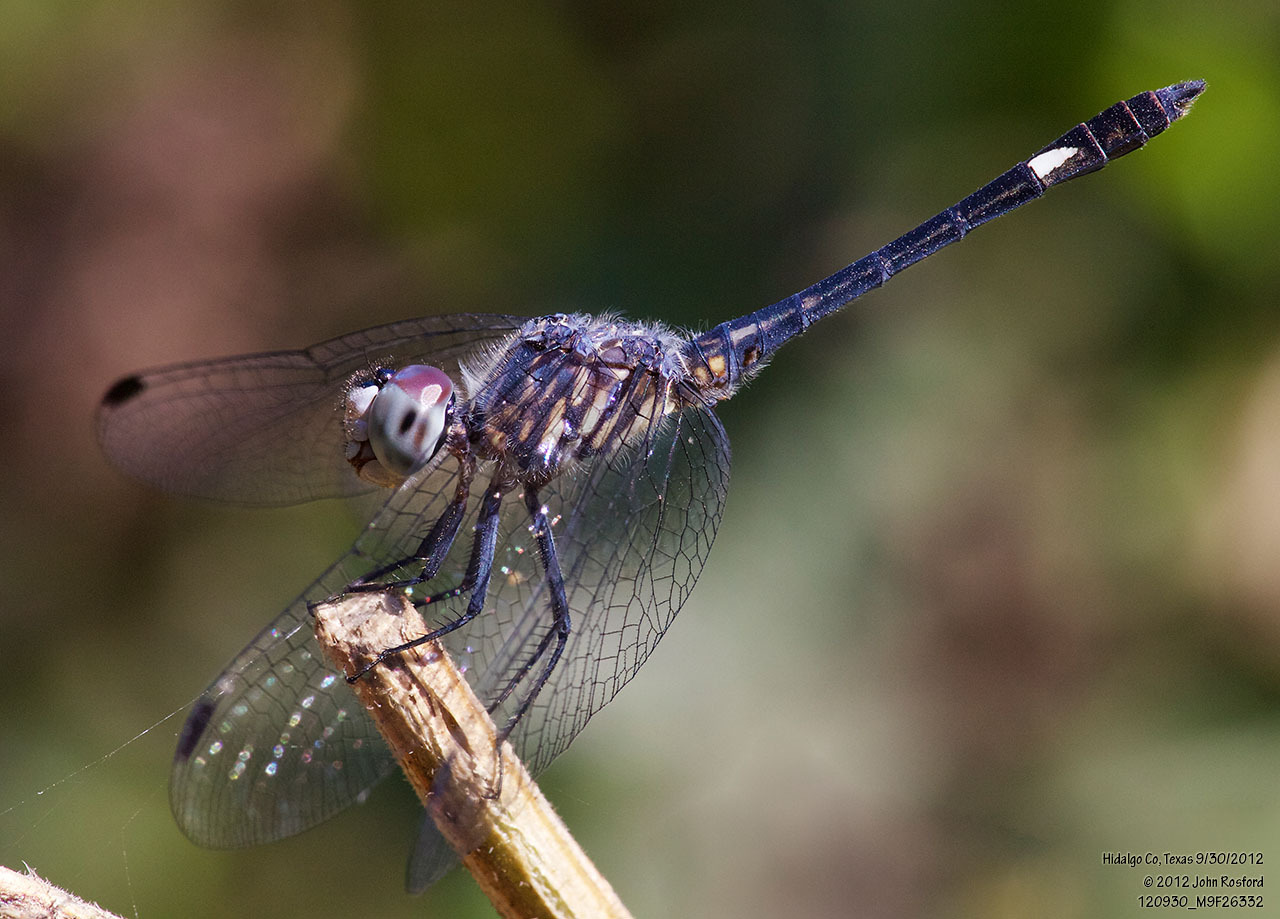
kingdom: Animalia
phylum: Arthropoda
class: Insecta
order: Odonata
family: Libellulidae
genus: Micrathyria
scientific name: Micrathyria aequalis
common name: Spot-tailed dasher
